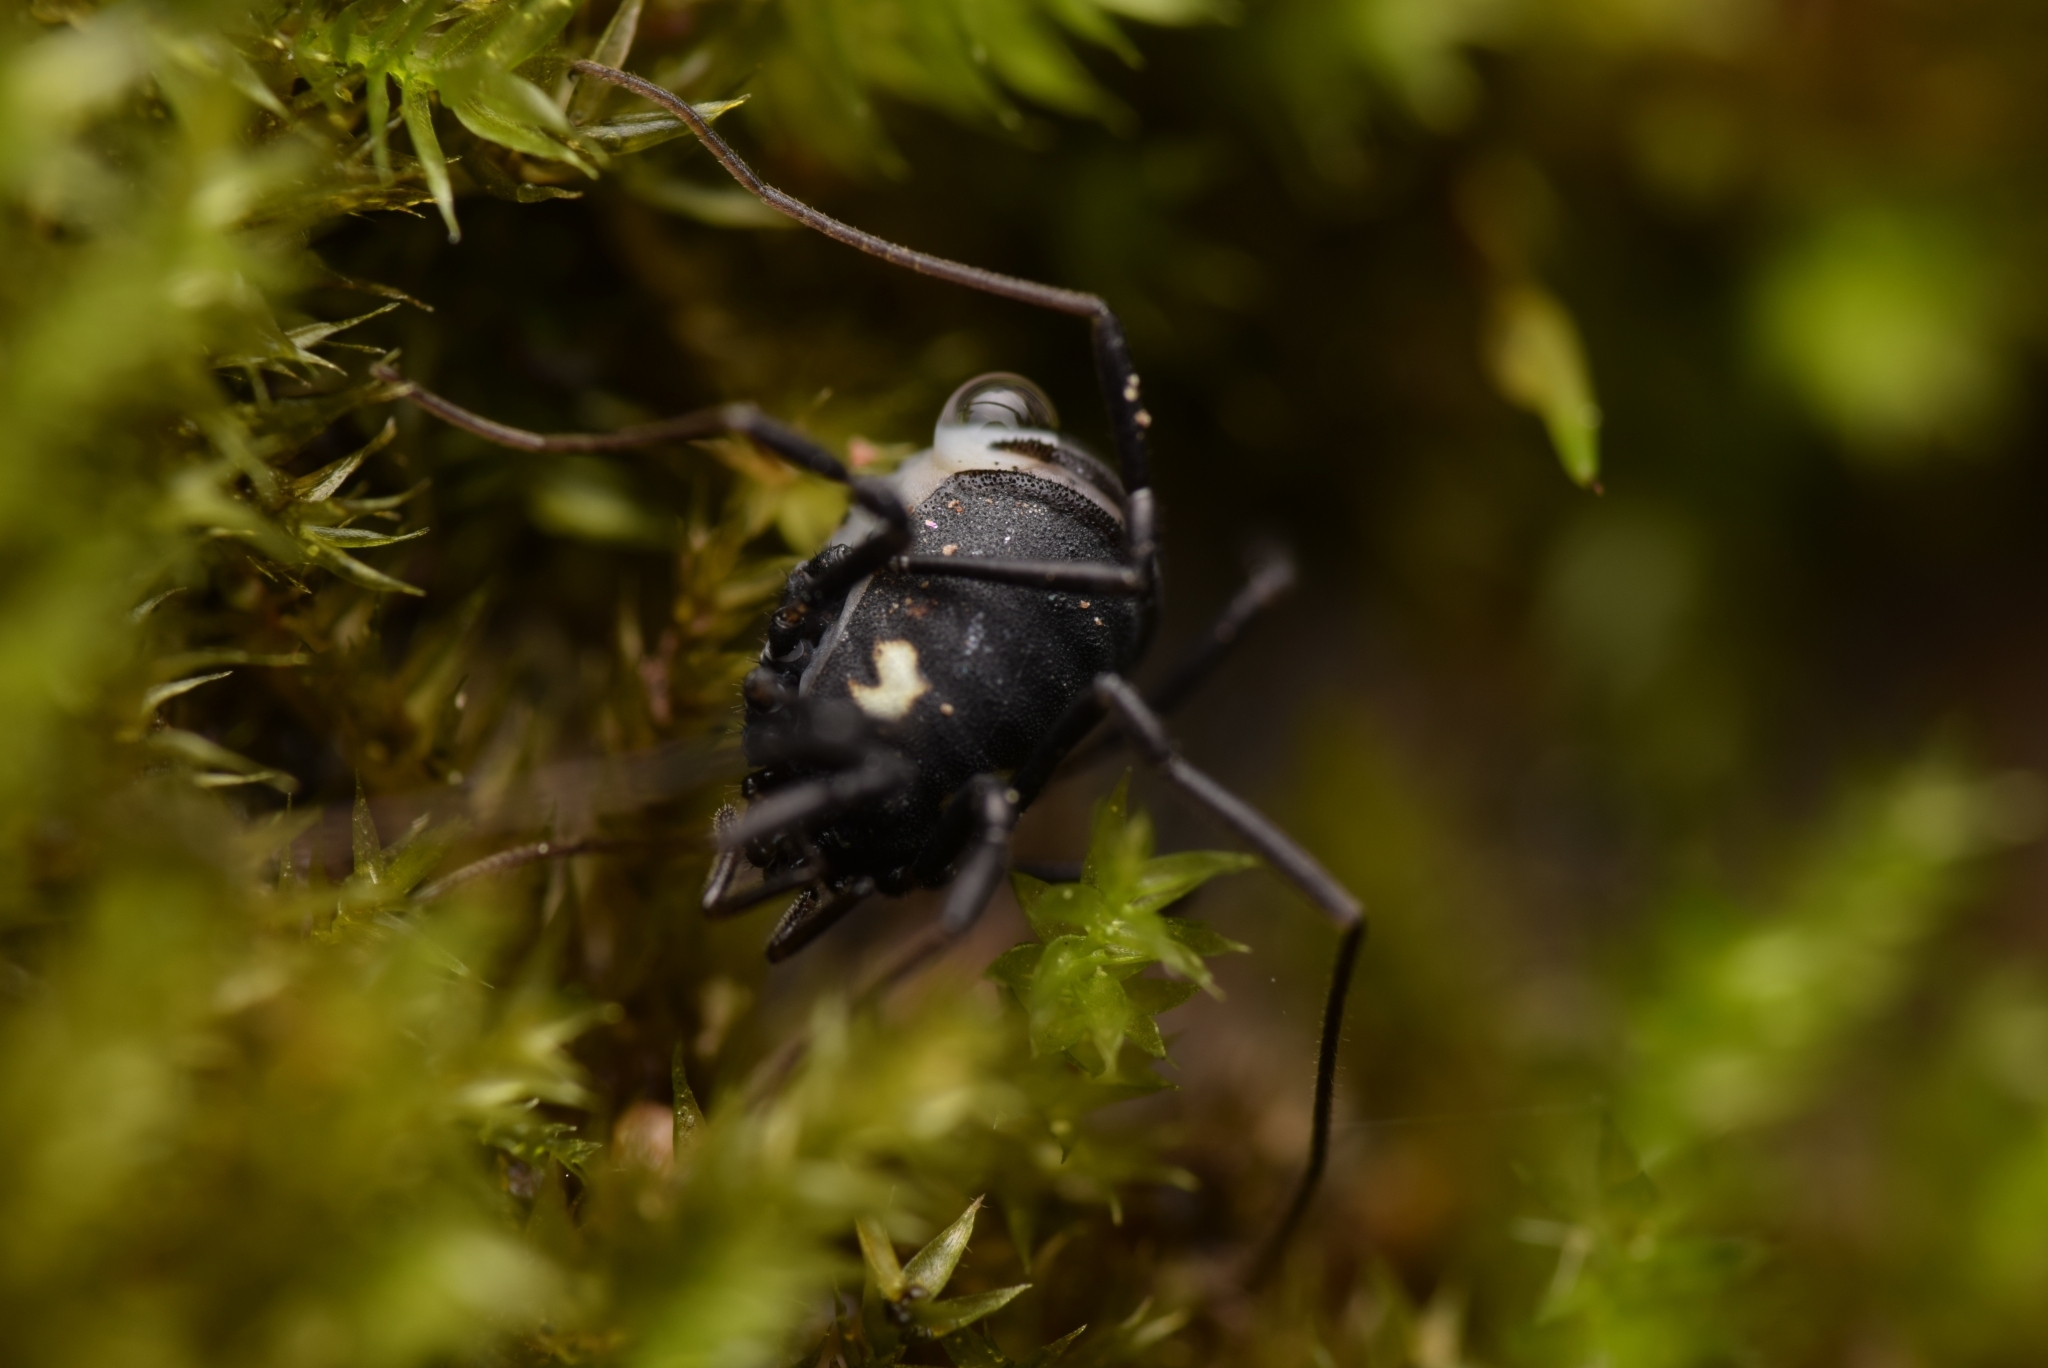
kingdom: Animalia
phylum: Arthropoda
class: Arachnida
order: Opiliones
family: Nemastomatidae
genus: Nemastoma
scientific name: Nemastoma bimaculatum
